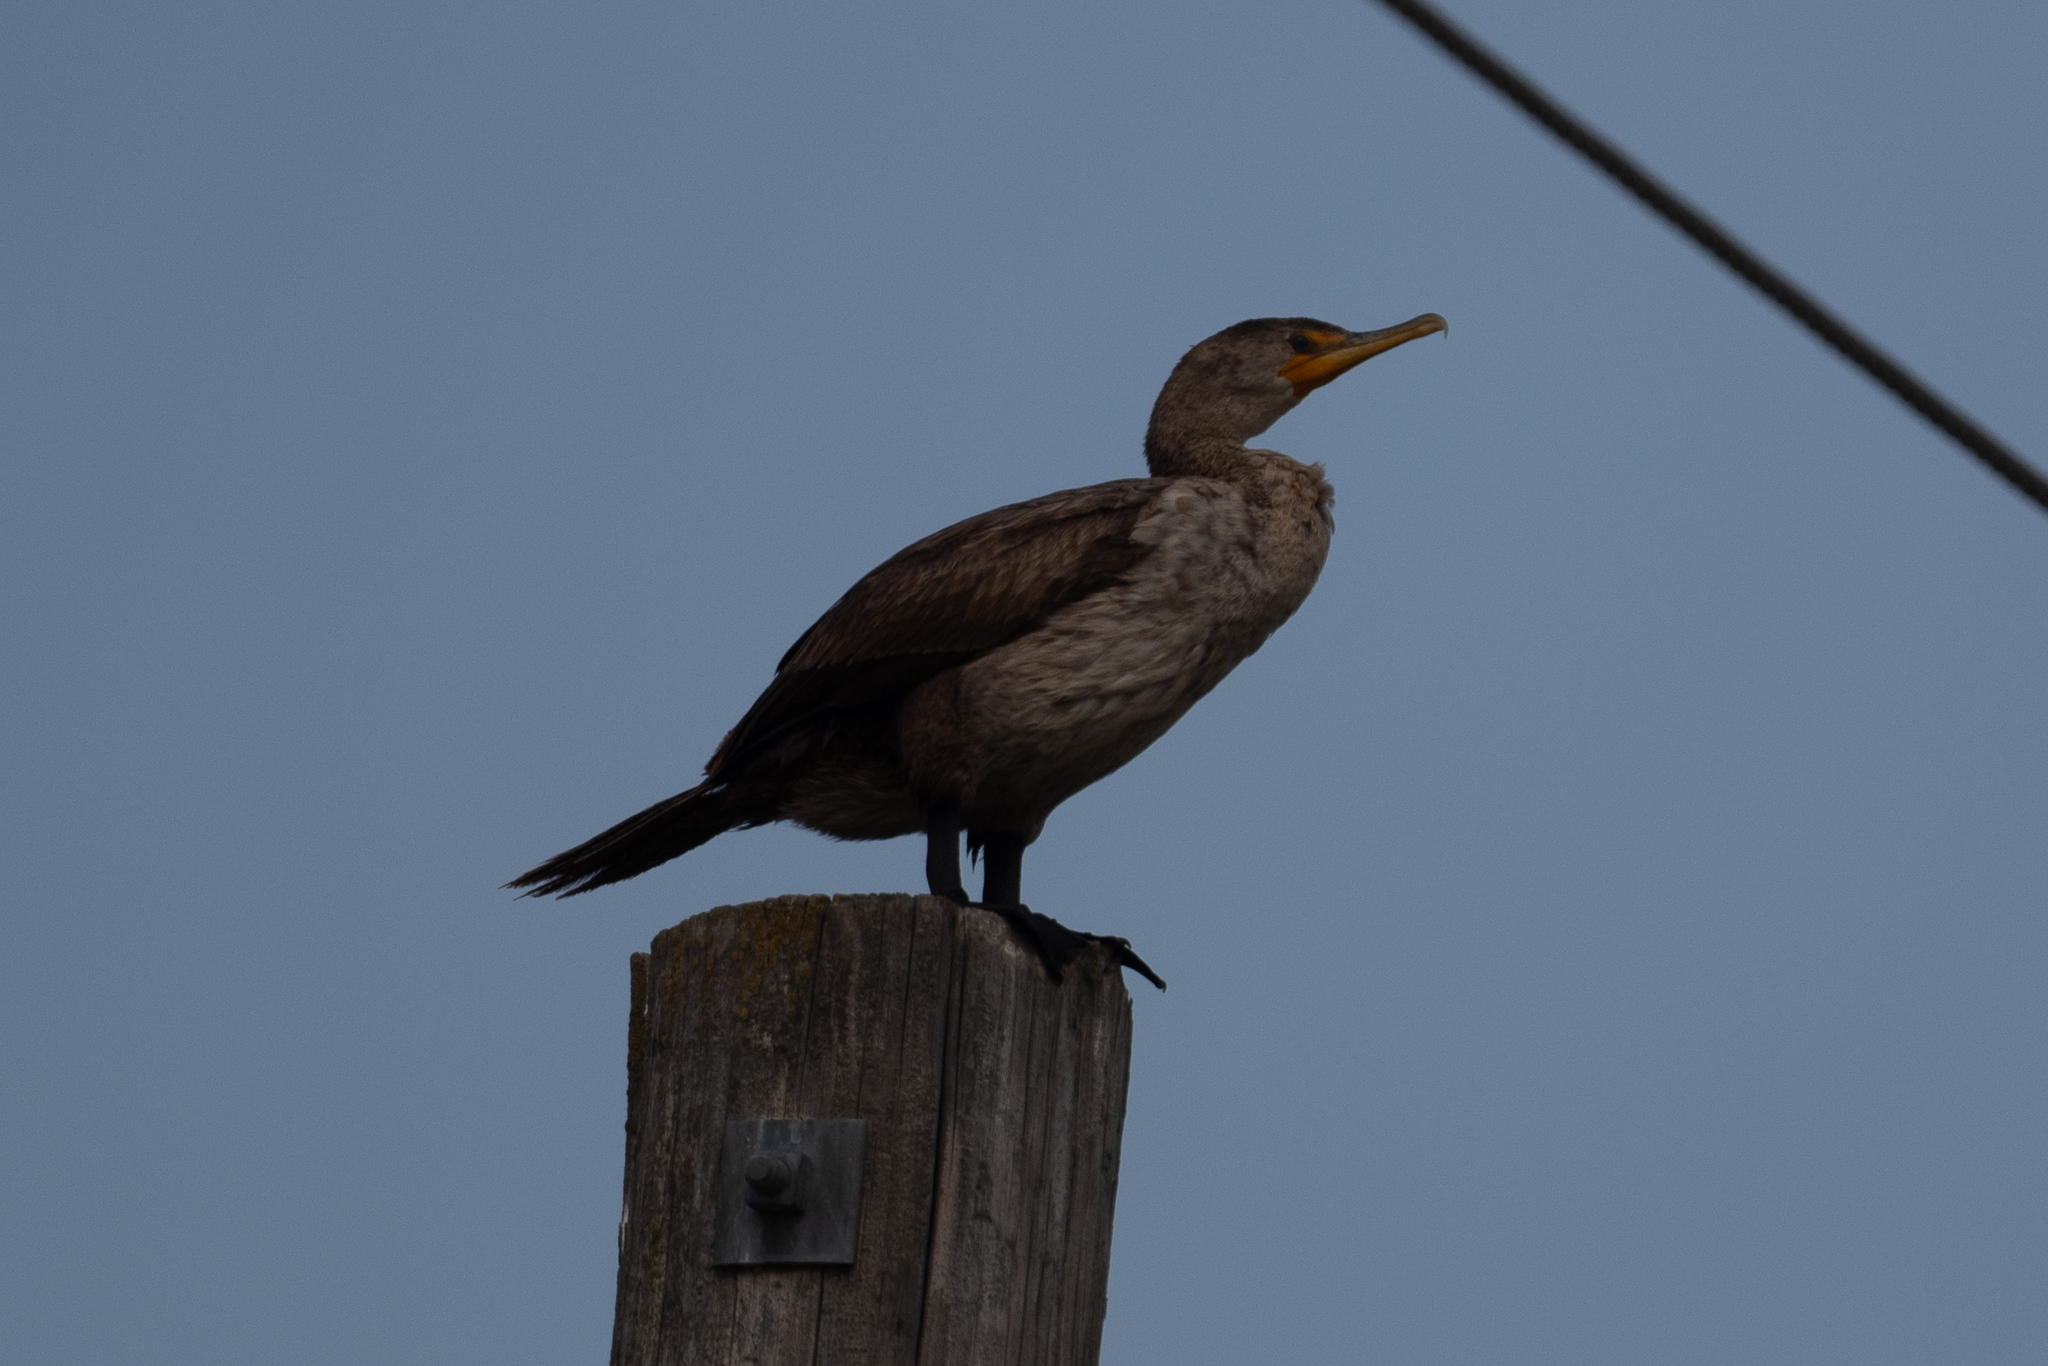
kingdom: Animalia
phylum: Chordata
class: Aves
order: Suliformes
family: Phalacrocoracidae
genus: Phalacrocorax
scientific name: Phalacrocorax auritus
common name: Double-crested cormorant
